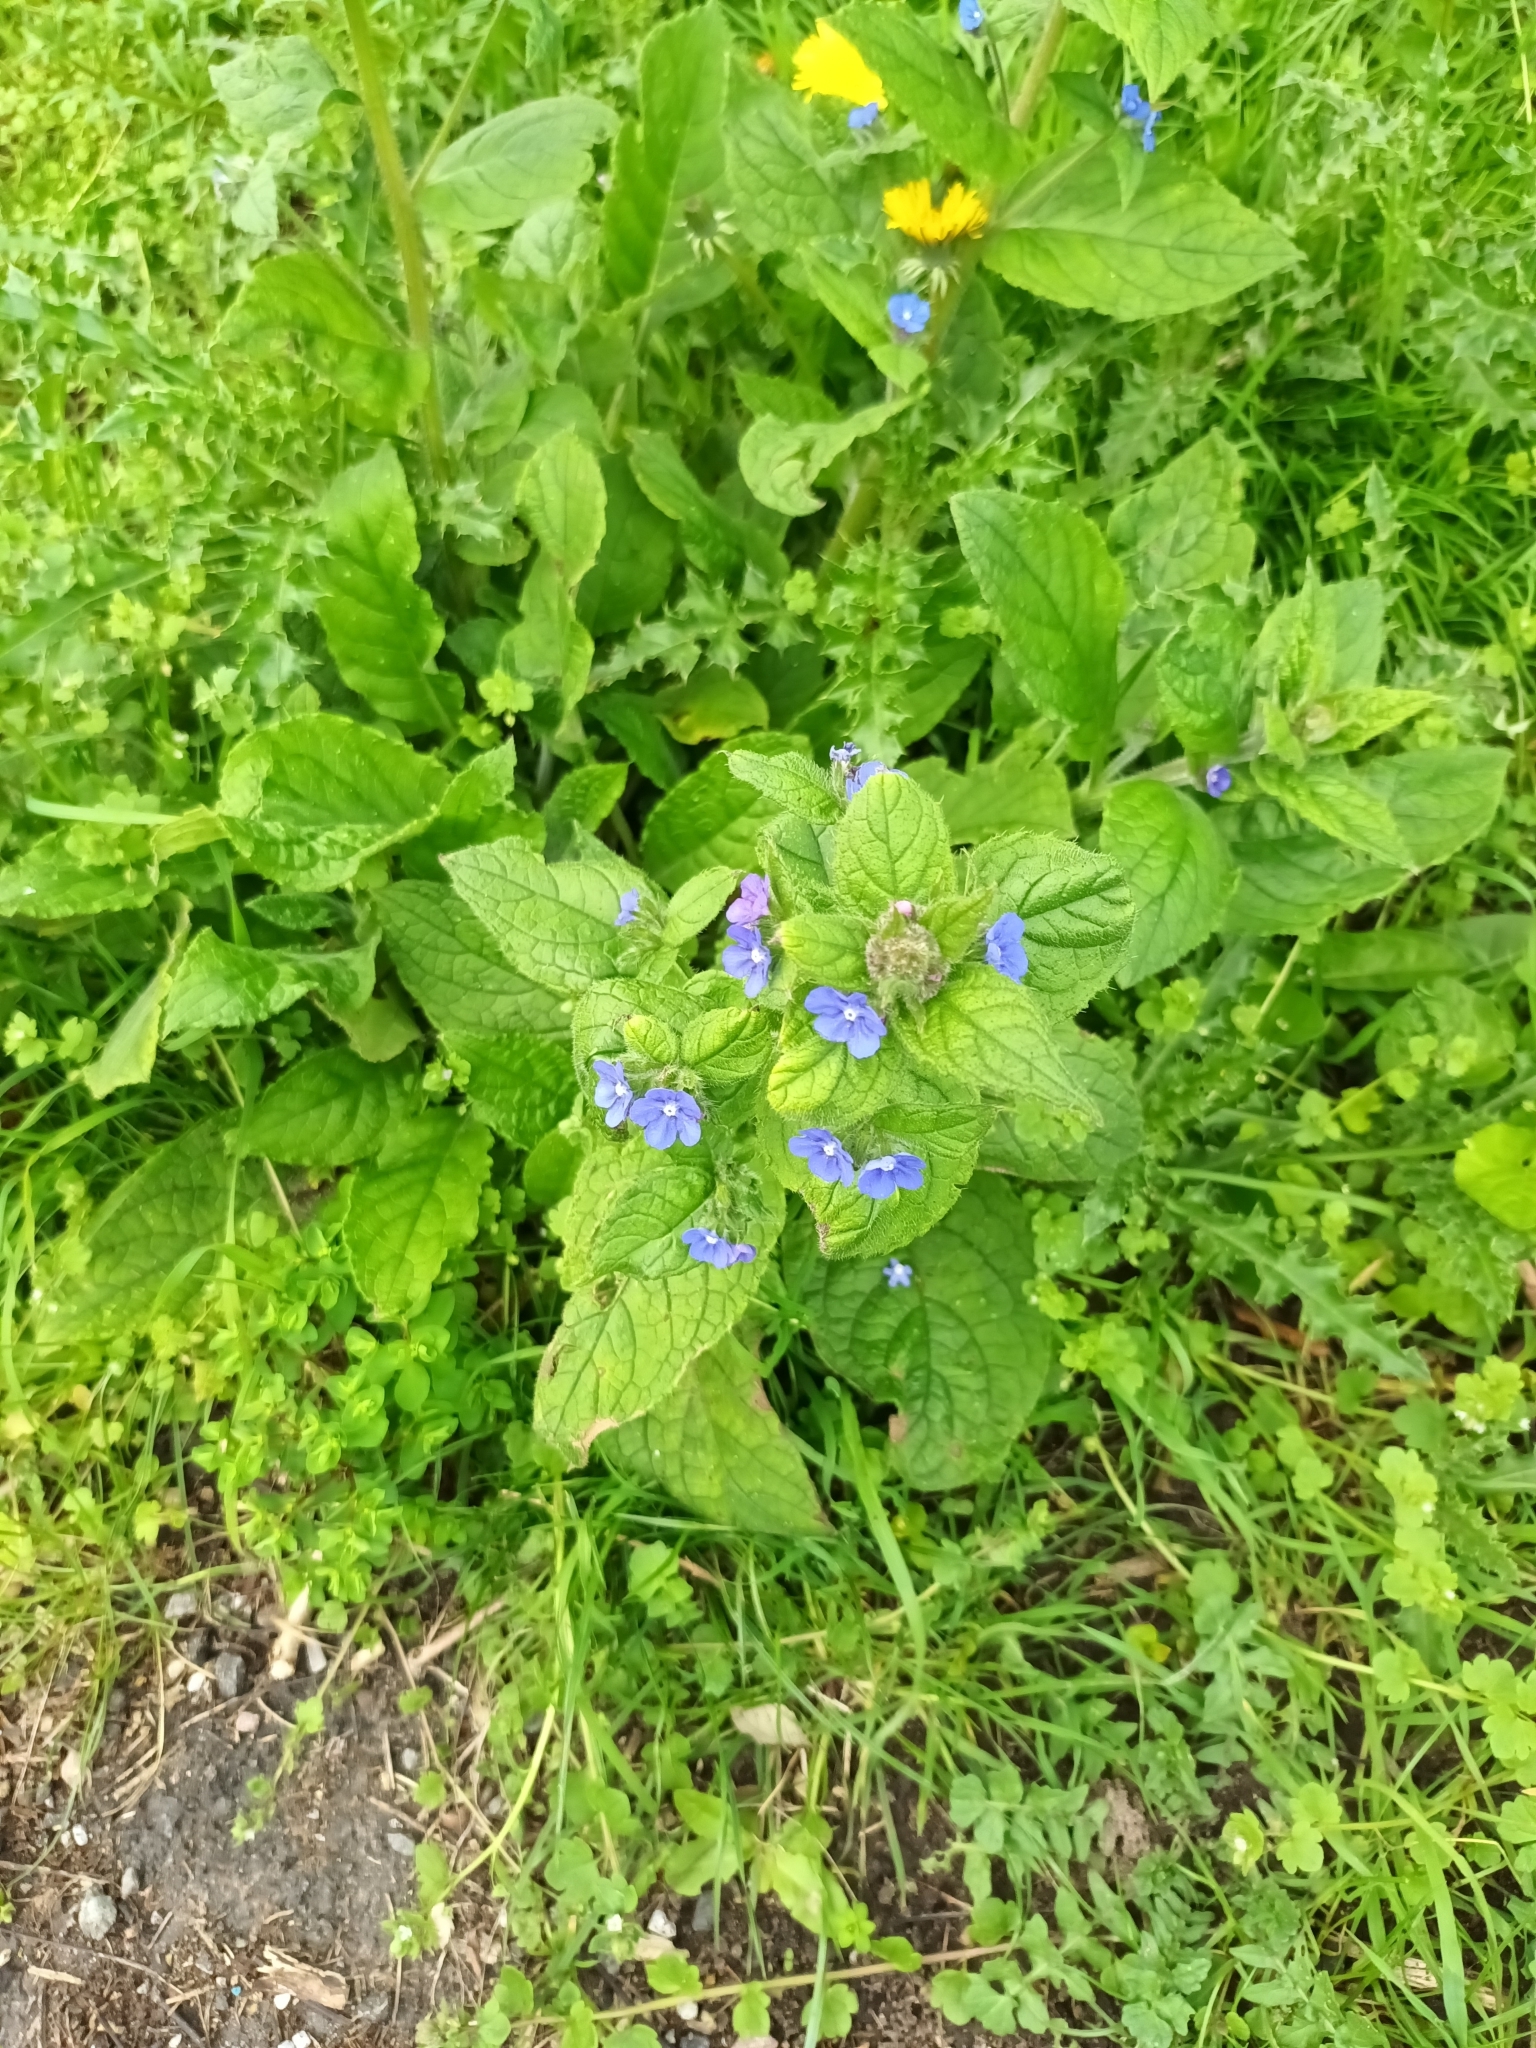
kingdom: Plantae
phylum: Tracheophyta
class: Magnoliopsida
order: Boraginales
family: Boraginaceae
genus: Pentaglottis
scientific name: Pentaglottis sempervirens
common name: Green alkanet
